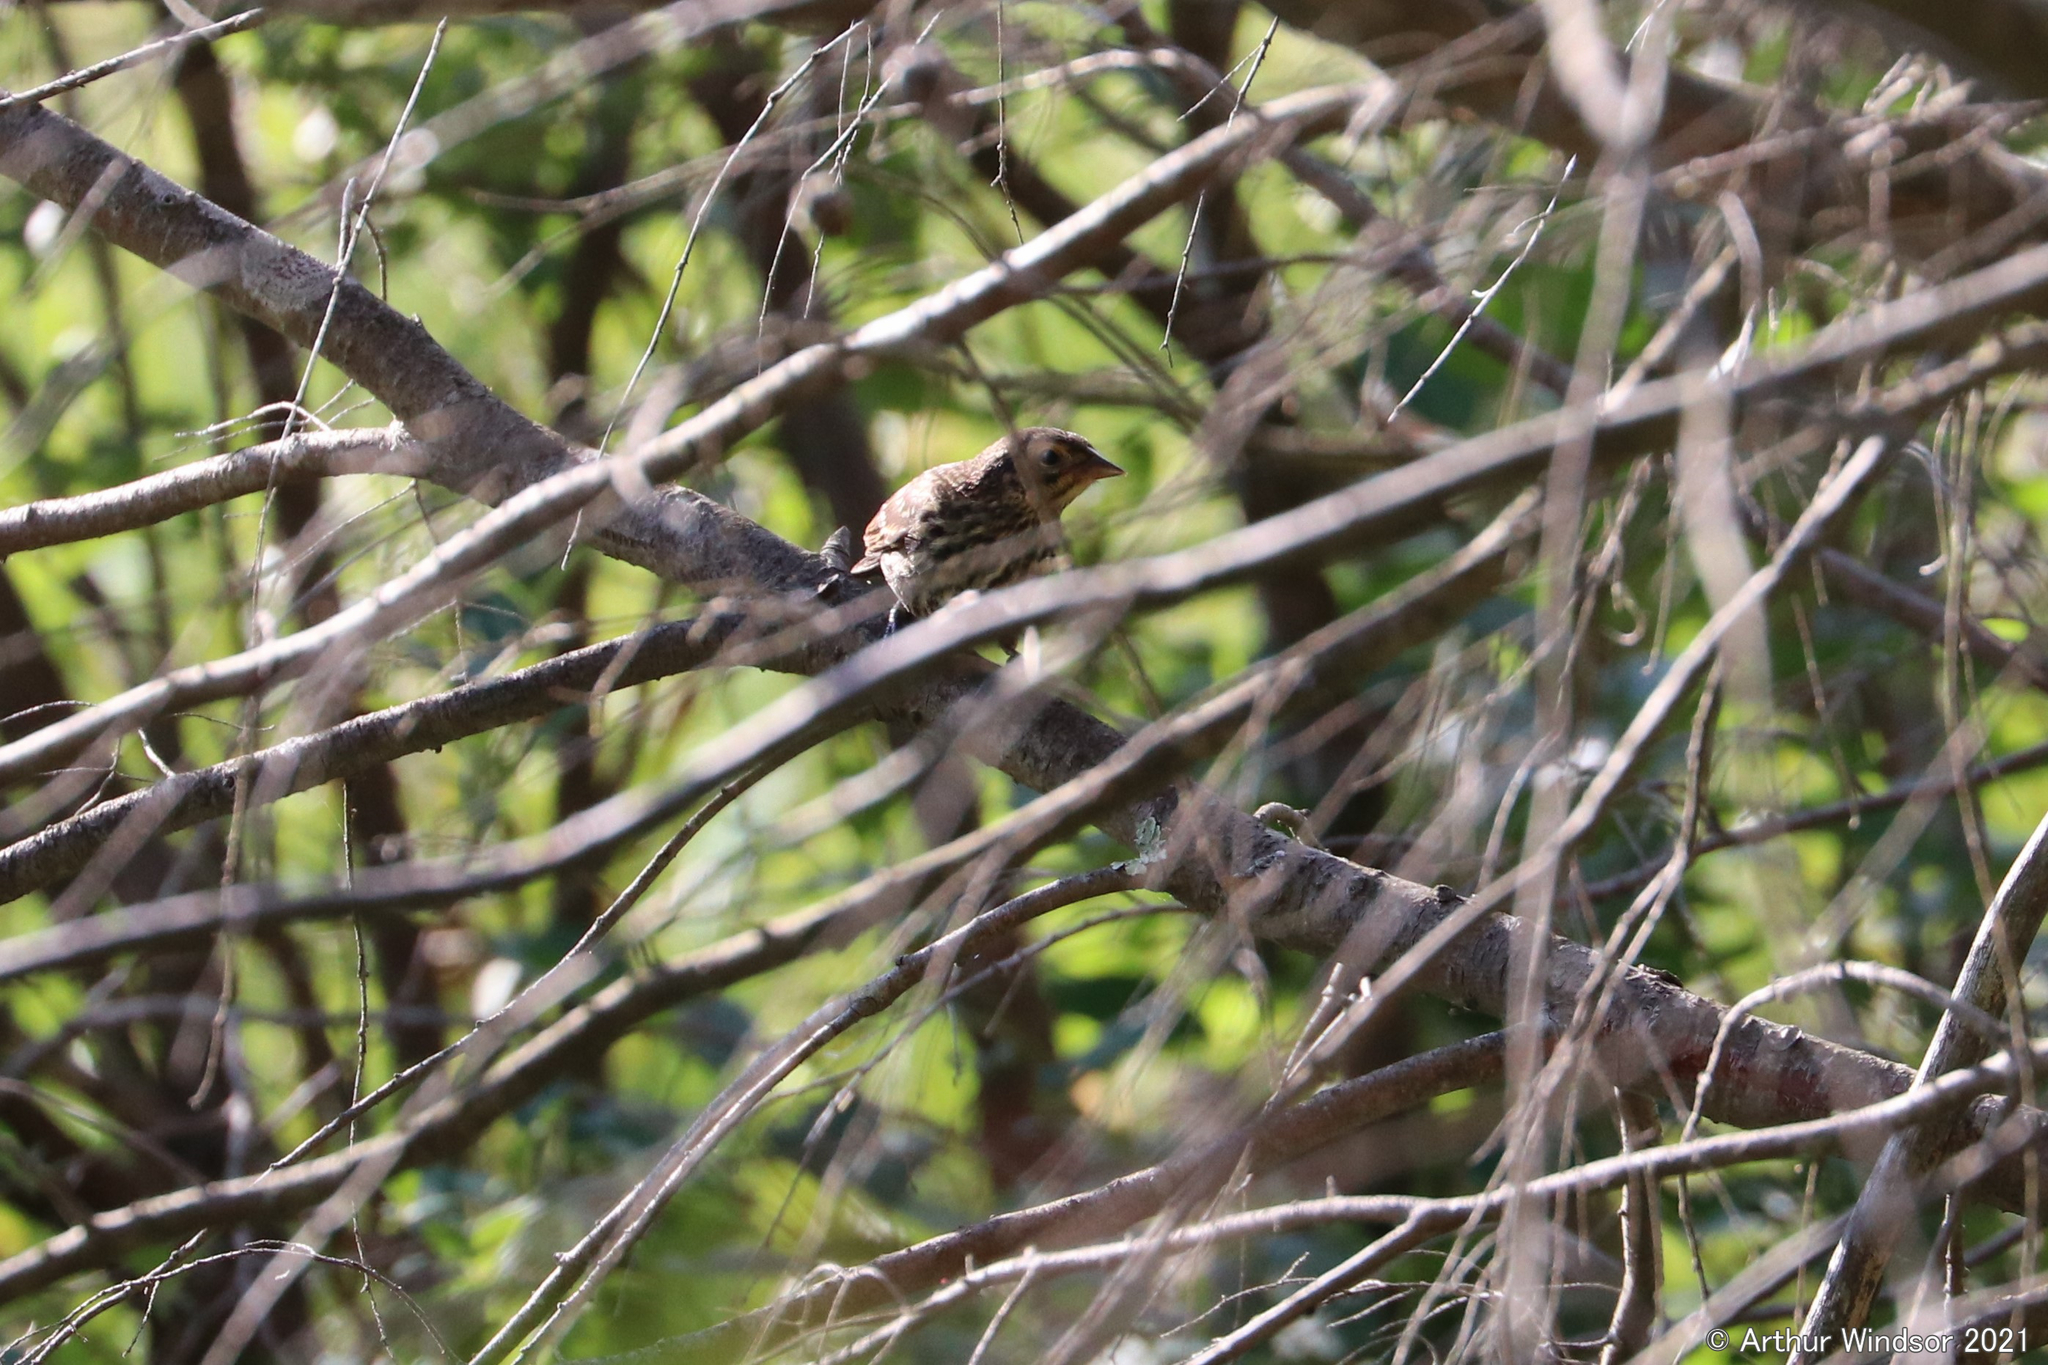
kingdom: Animalia
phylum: Chordata
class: Aves
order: Passeriformes
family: Icteridae
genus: Agelaius
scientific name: Agelaius phoeniceus
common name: Red-winged blackbird
